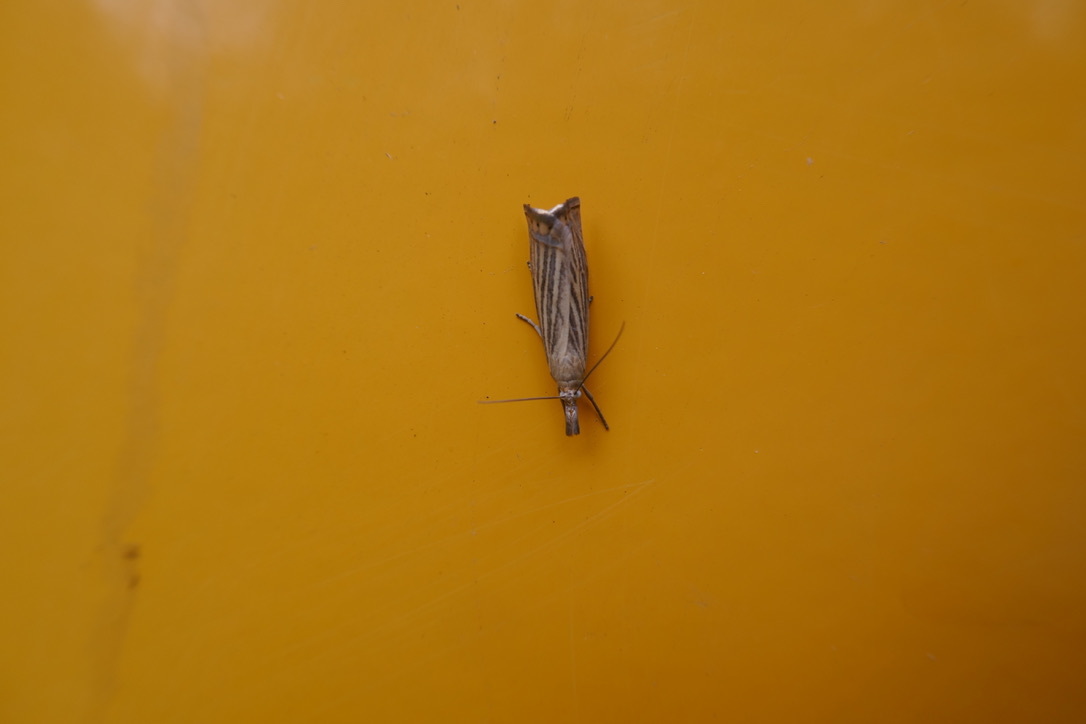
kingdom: Animalia
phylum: Arthropoda
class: Insecta
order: Lepidoptera
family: Crambidae
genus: Chrysoteuchia
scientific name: Chrysoteuchia culmella
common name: Garden grass-veneer
